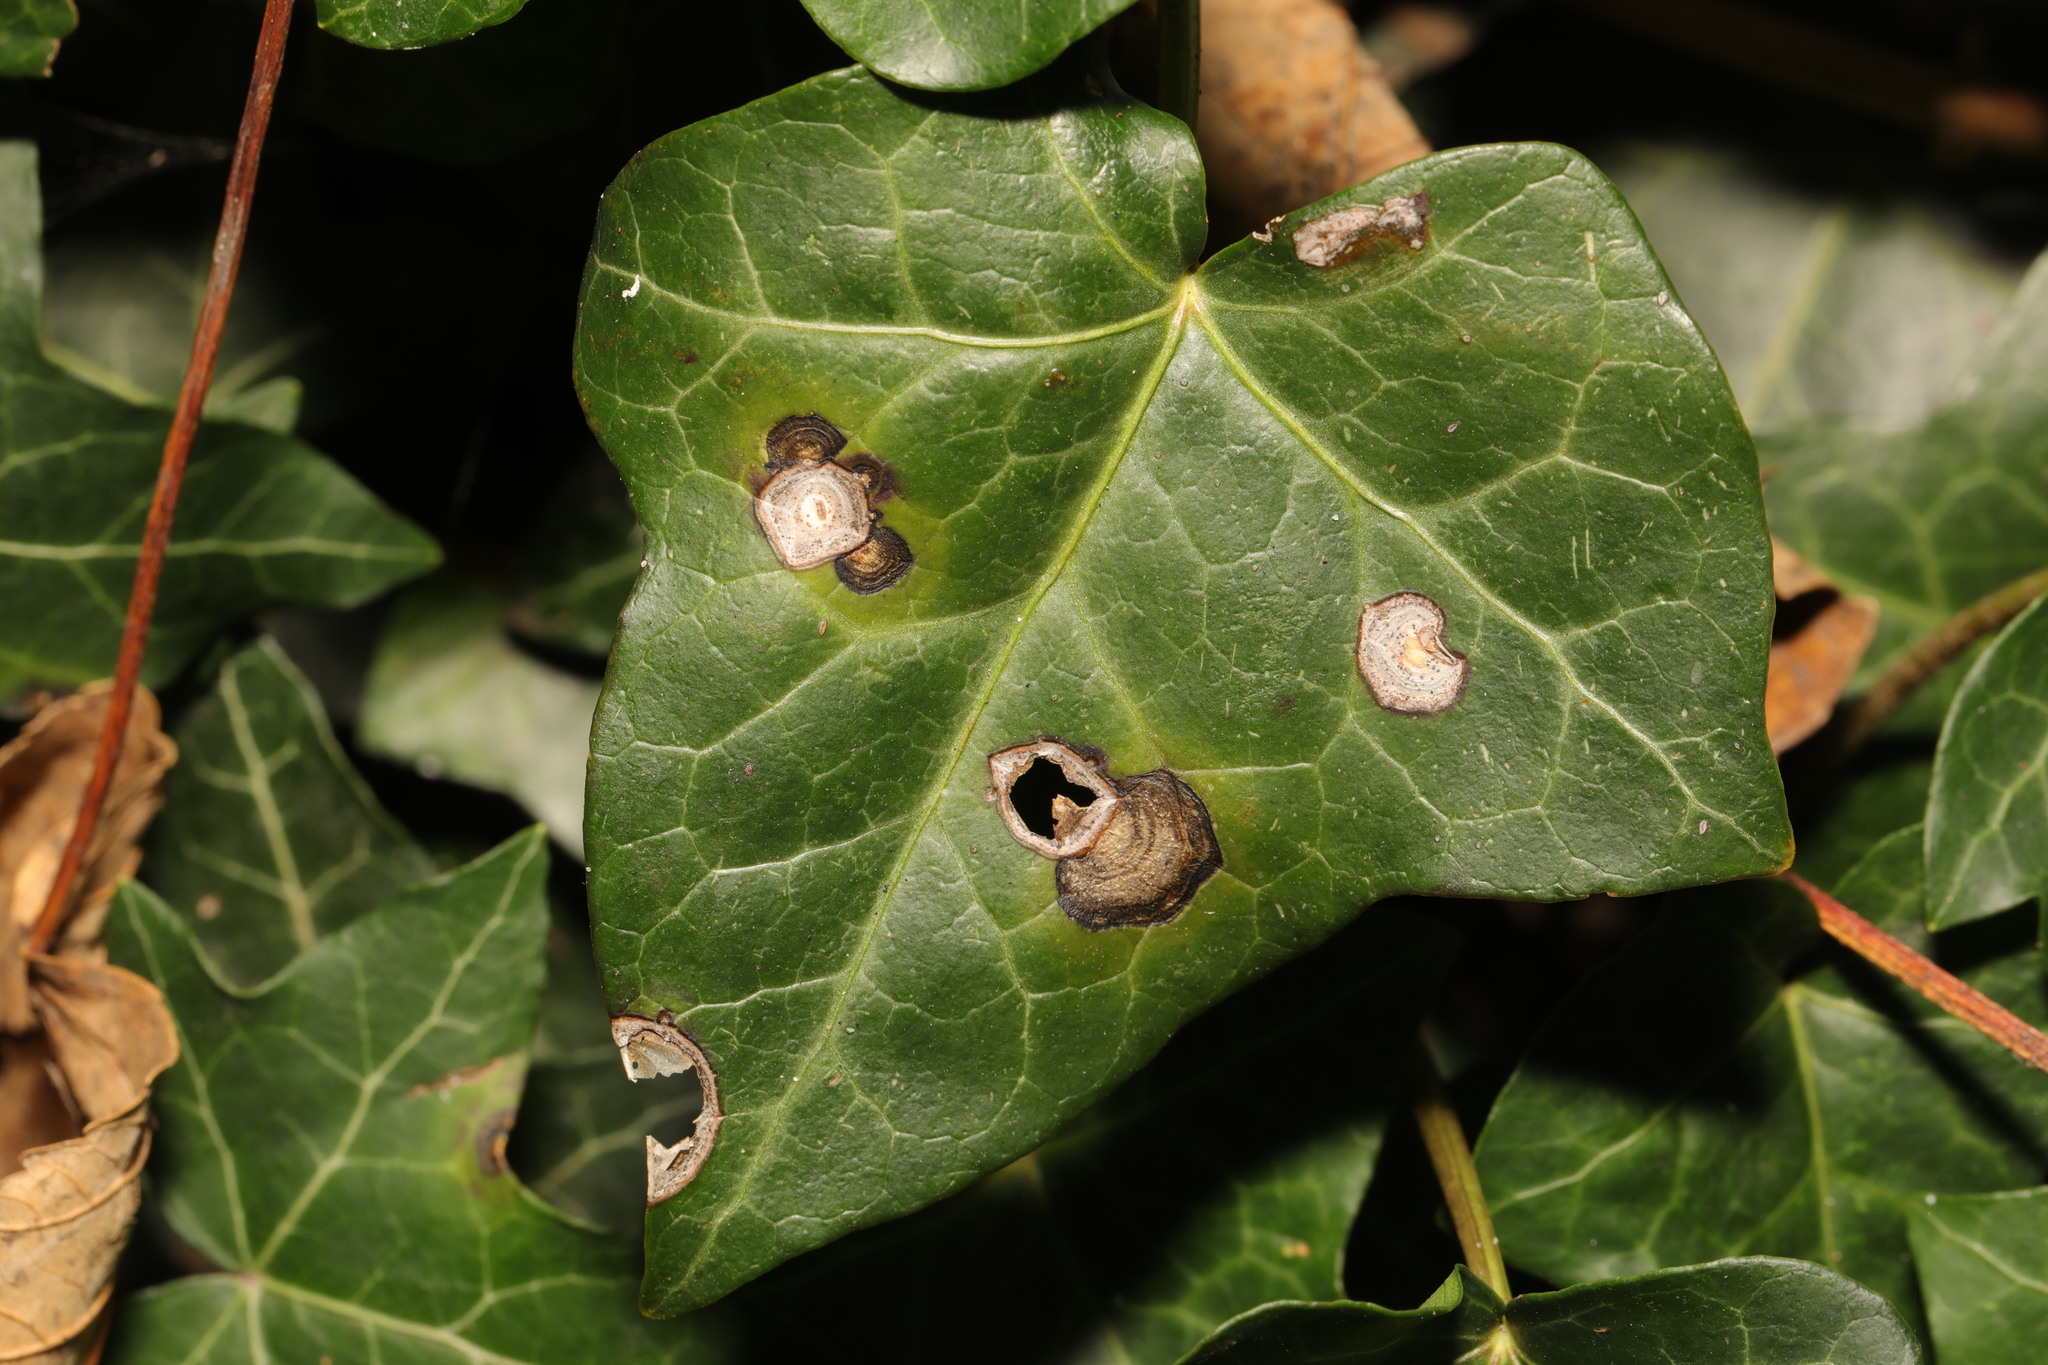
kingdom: Fungi
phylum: Ascomycota
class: Dothideomycetes
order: Pleosporales
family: Didymellaceae
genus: Boeremia
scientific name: Boeremia hedericola
